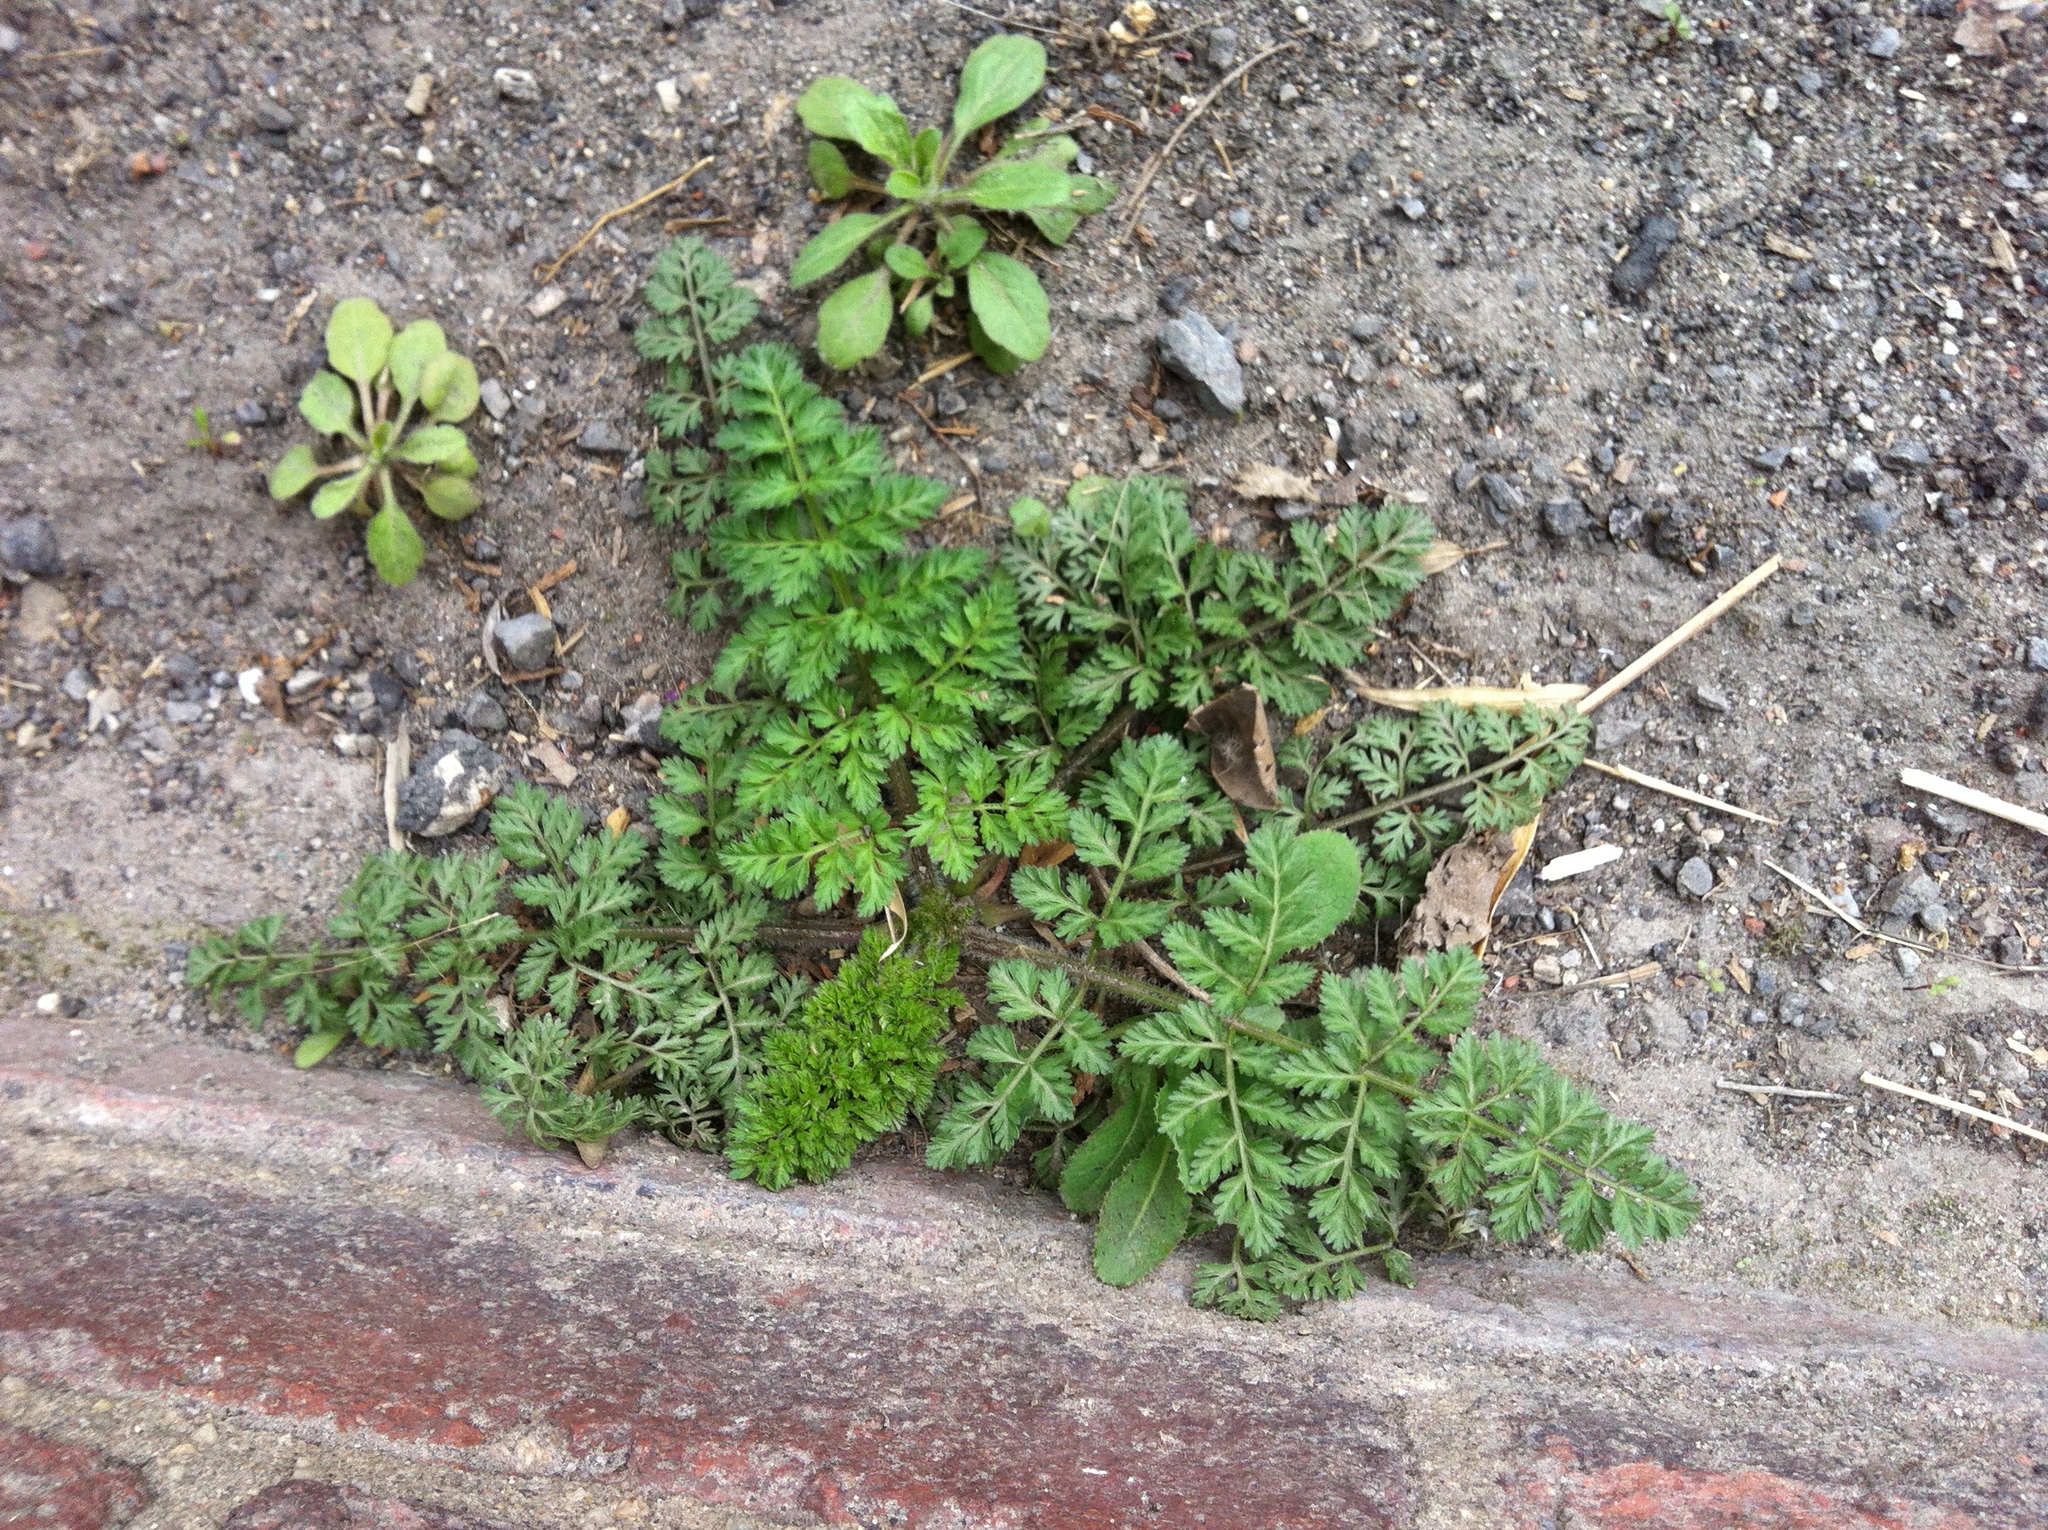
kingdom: Plantae
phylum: Tracheophyta
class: Magnoliopsida
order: Apiales
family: Apiaceae
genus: Daucus
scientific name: Daucus carota
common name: Wild carrot
